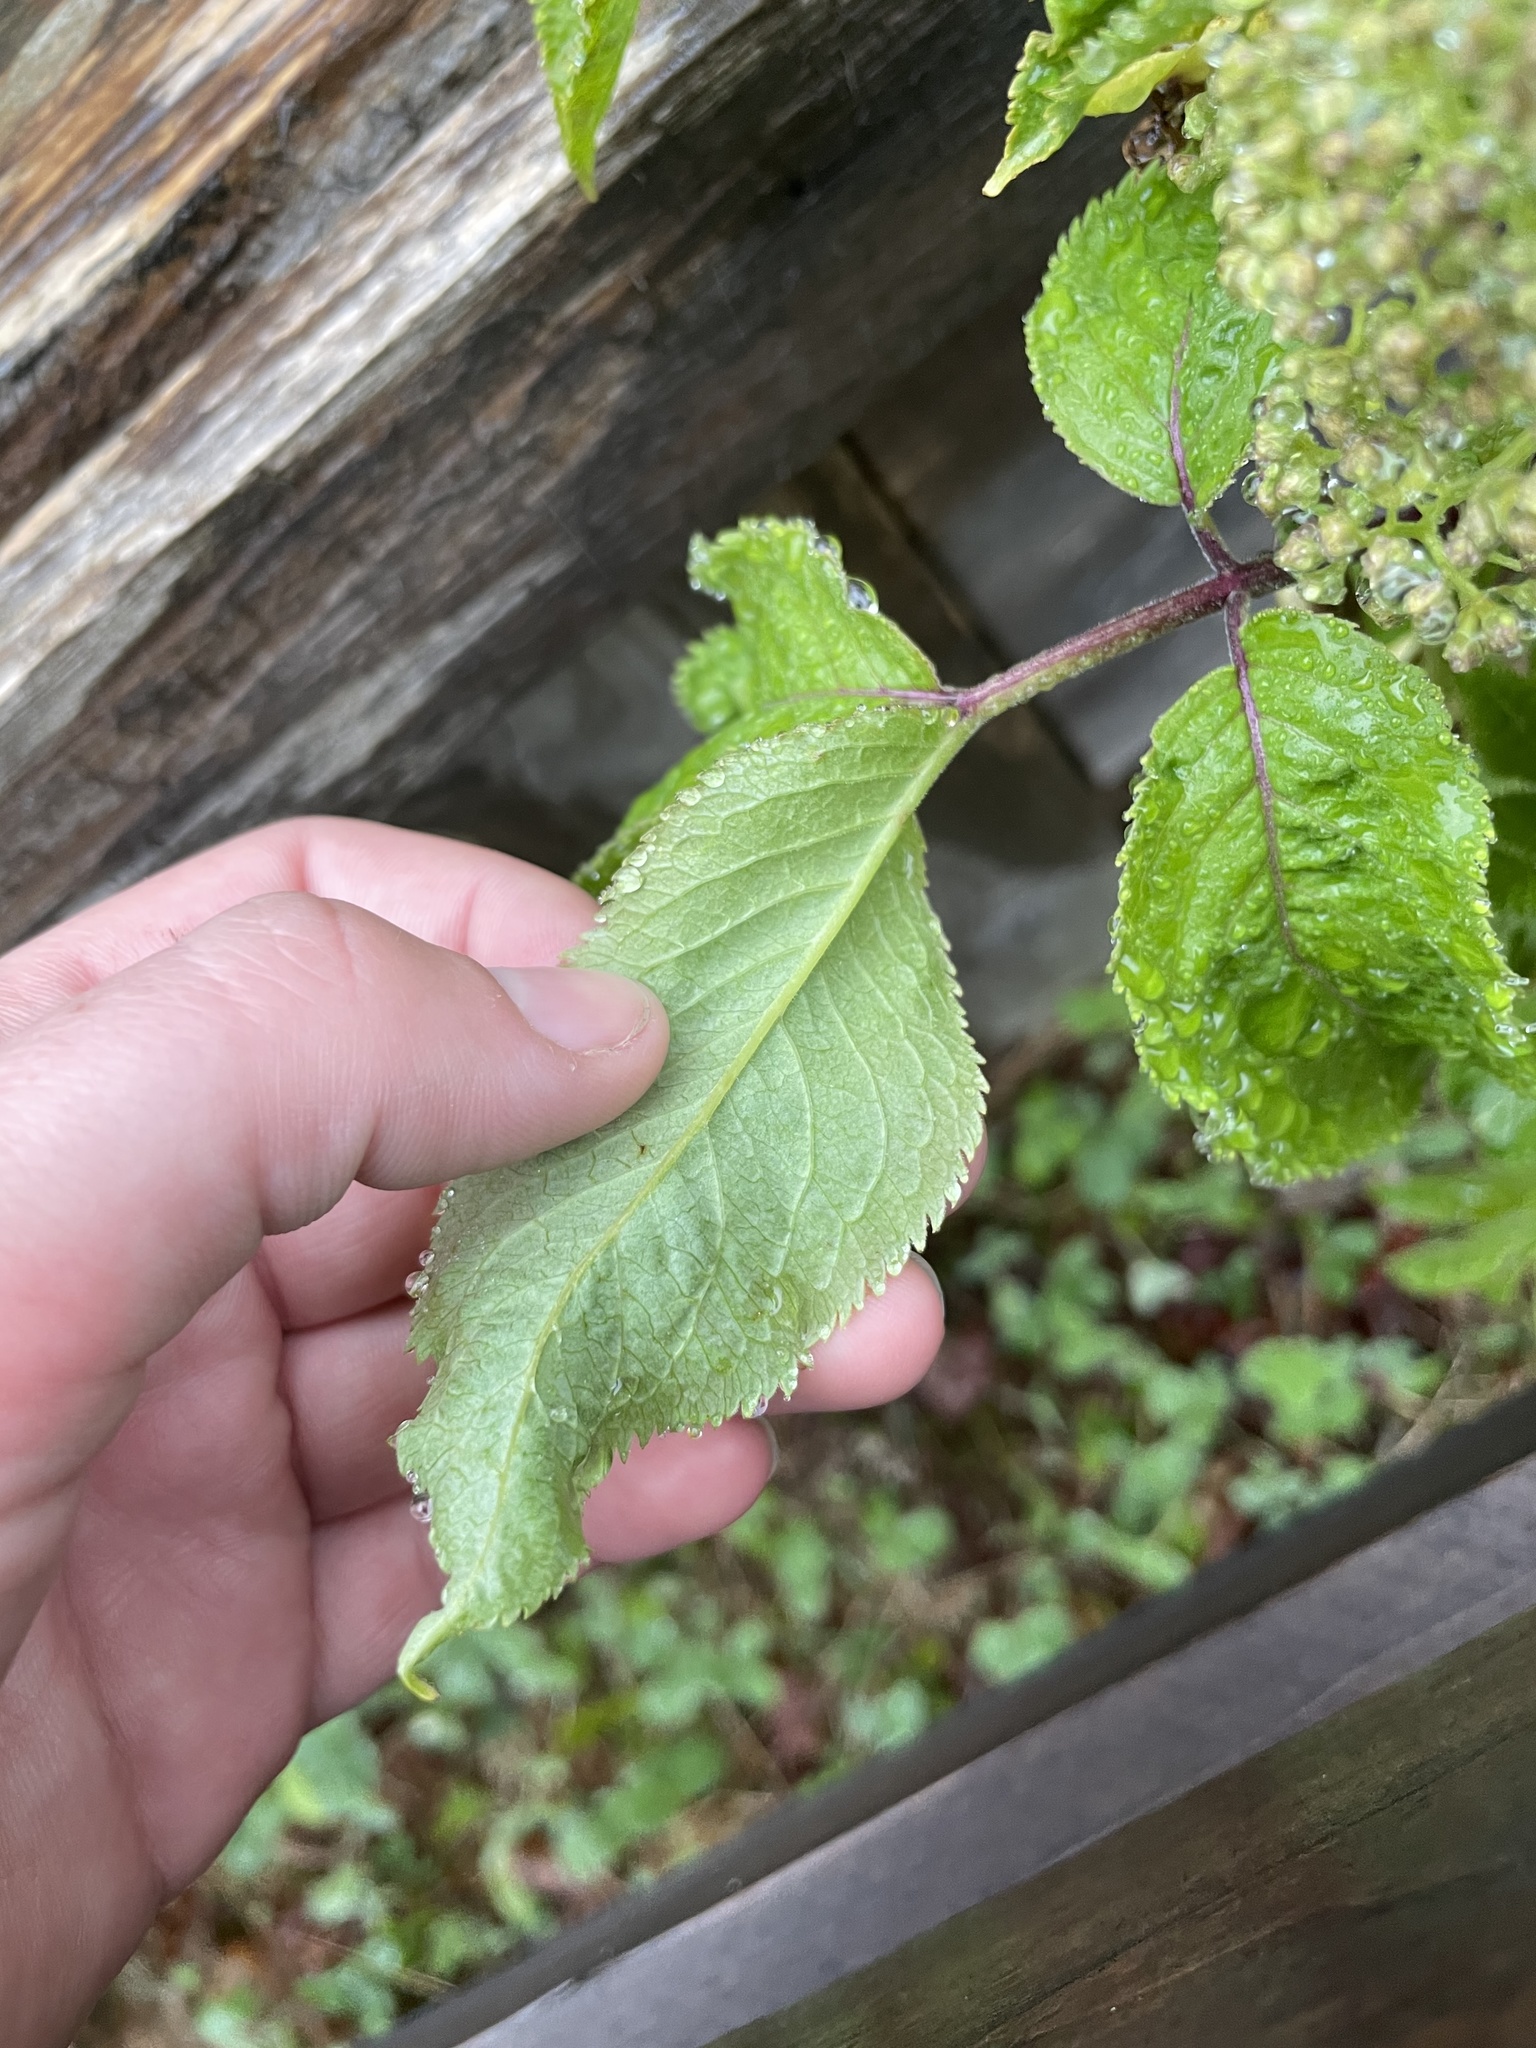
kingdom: Plantae
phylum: Tracheophyta
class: Magnoliopsida
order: Dipsacales
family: Viburnaceae
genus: Sambucus
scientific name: Sambucus racemosa
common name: Red-berried elder
